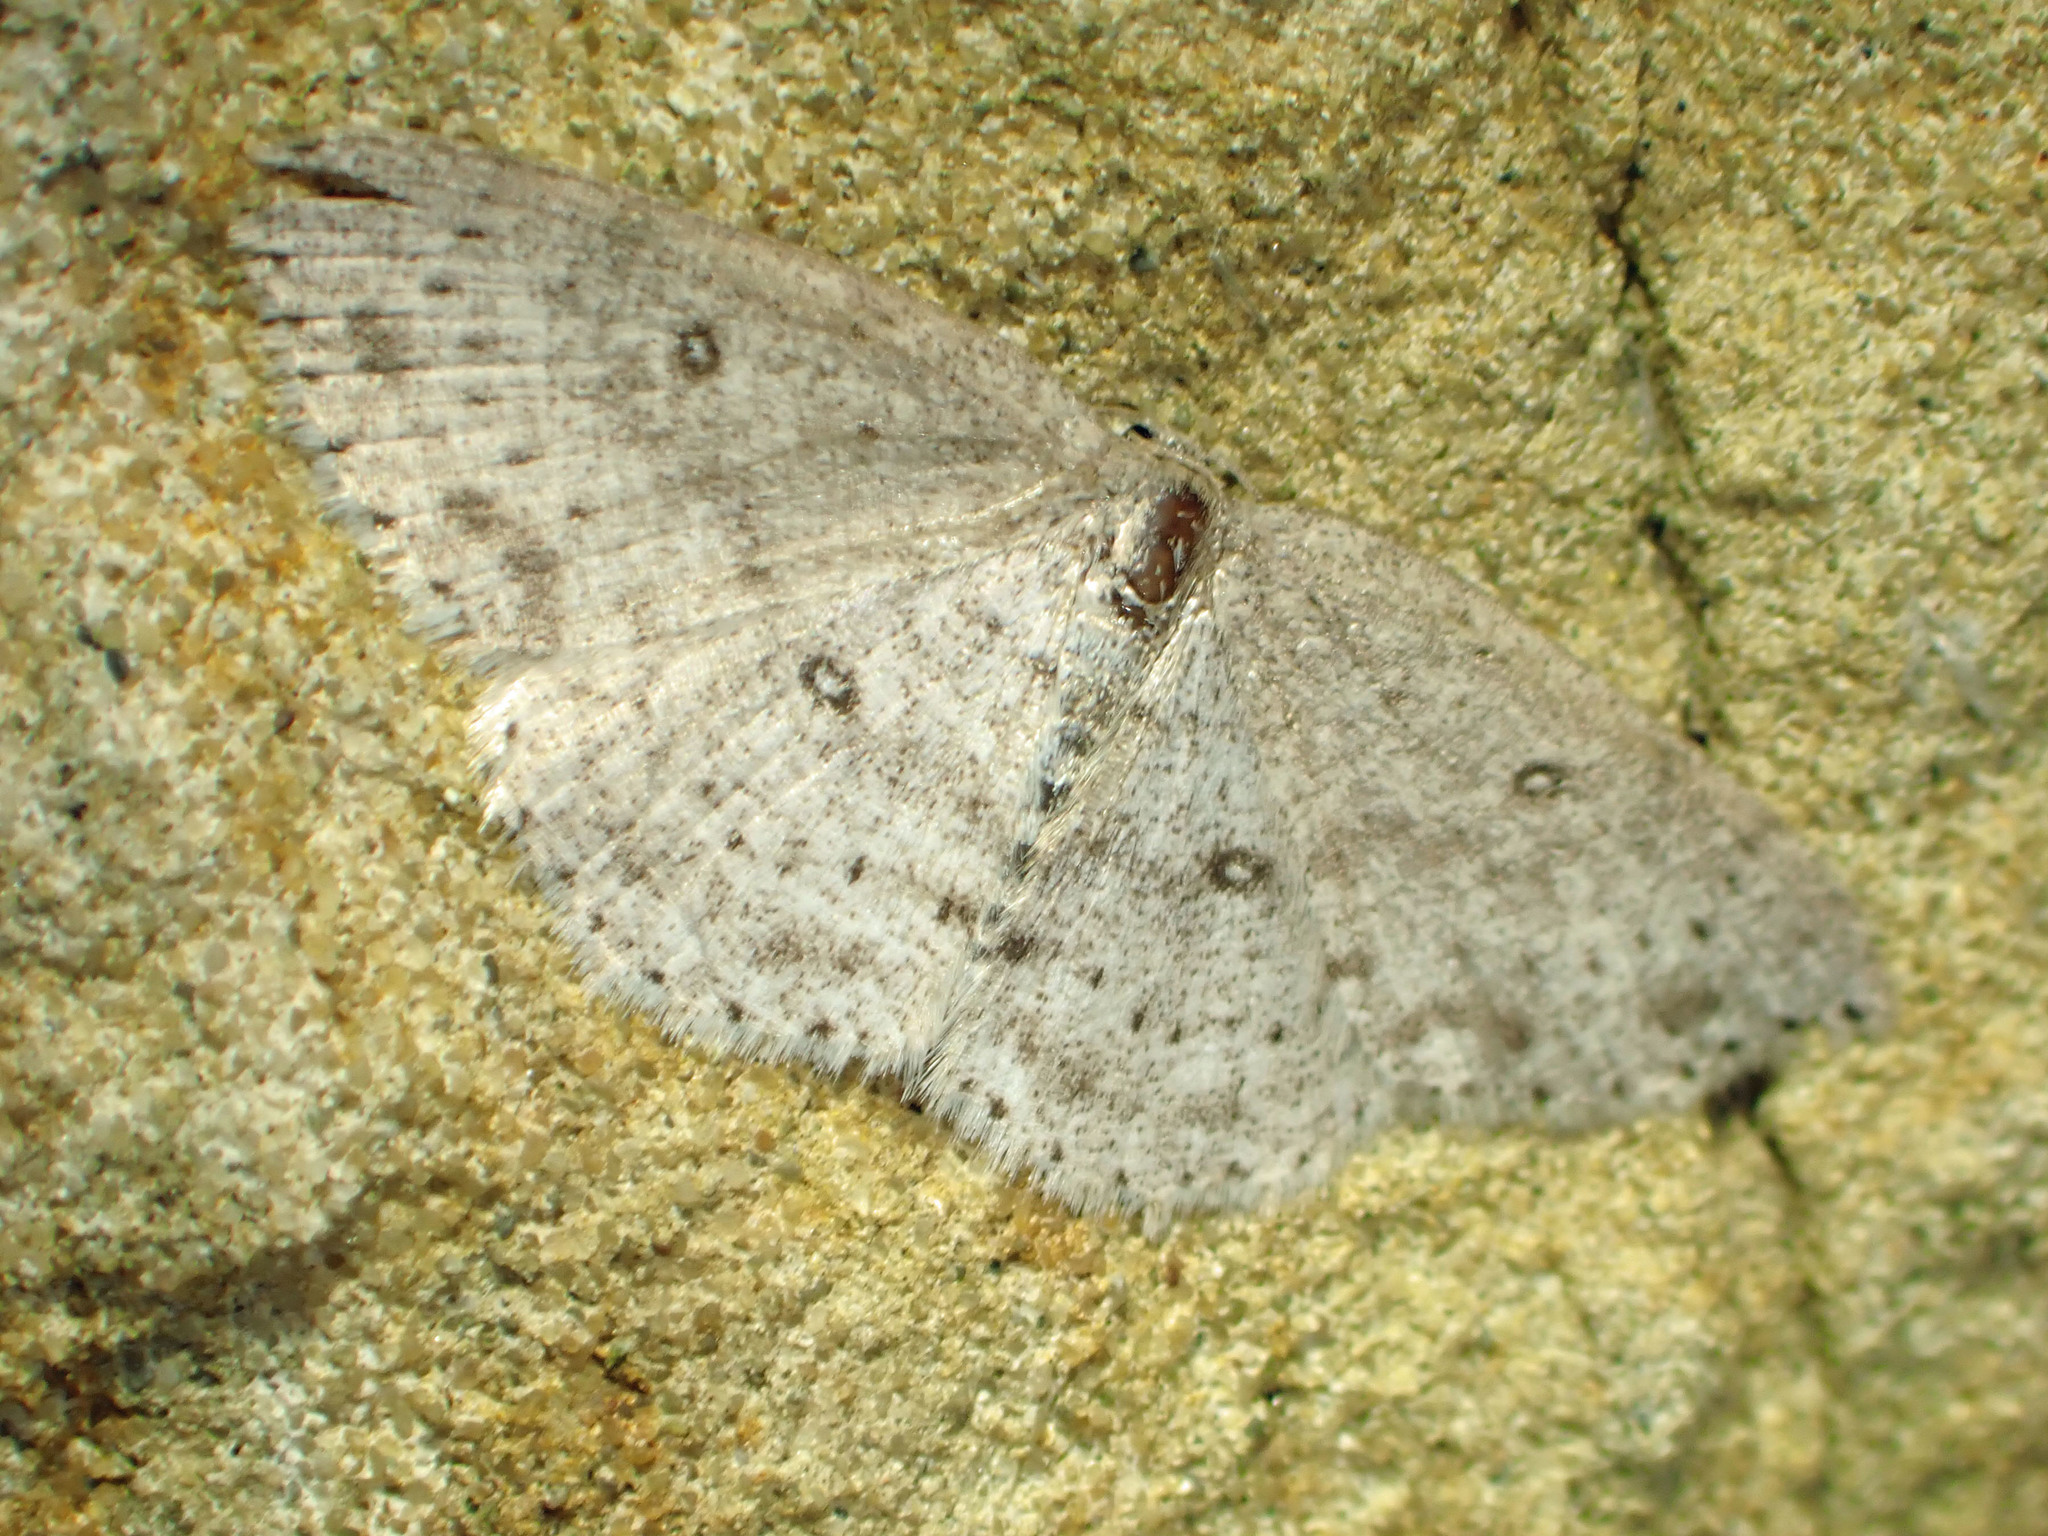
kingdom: Animalia
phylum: Arthropoda
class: Insecta
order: Lepidoptera
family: Geometridae
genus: Cyclophora
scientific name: Cyclophora pendulinaria
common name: Sweet fern geometer
